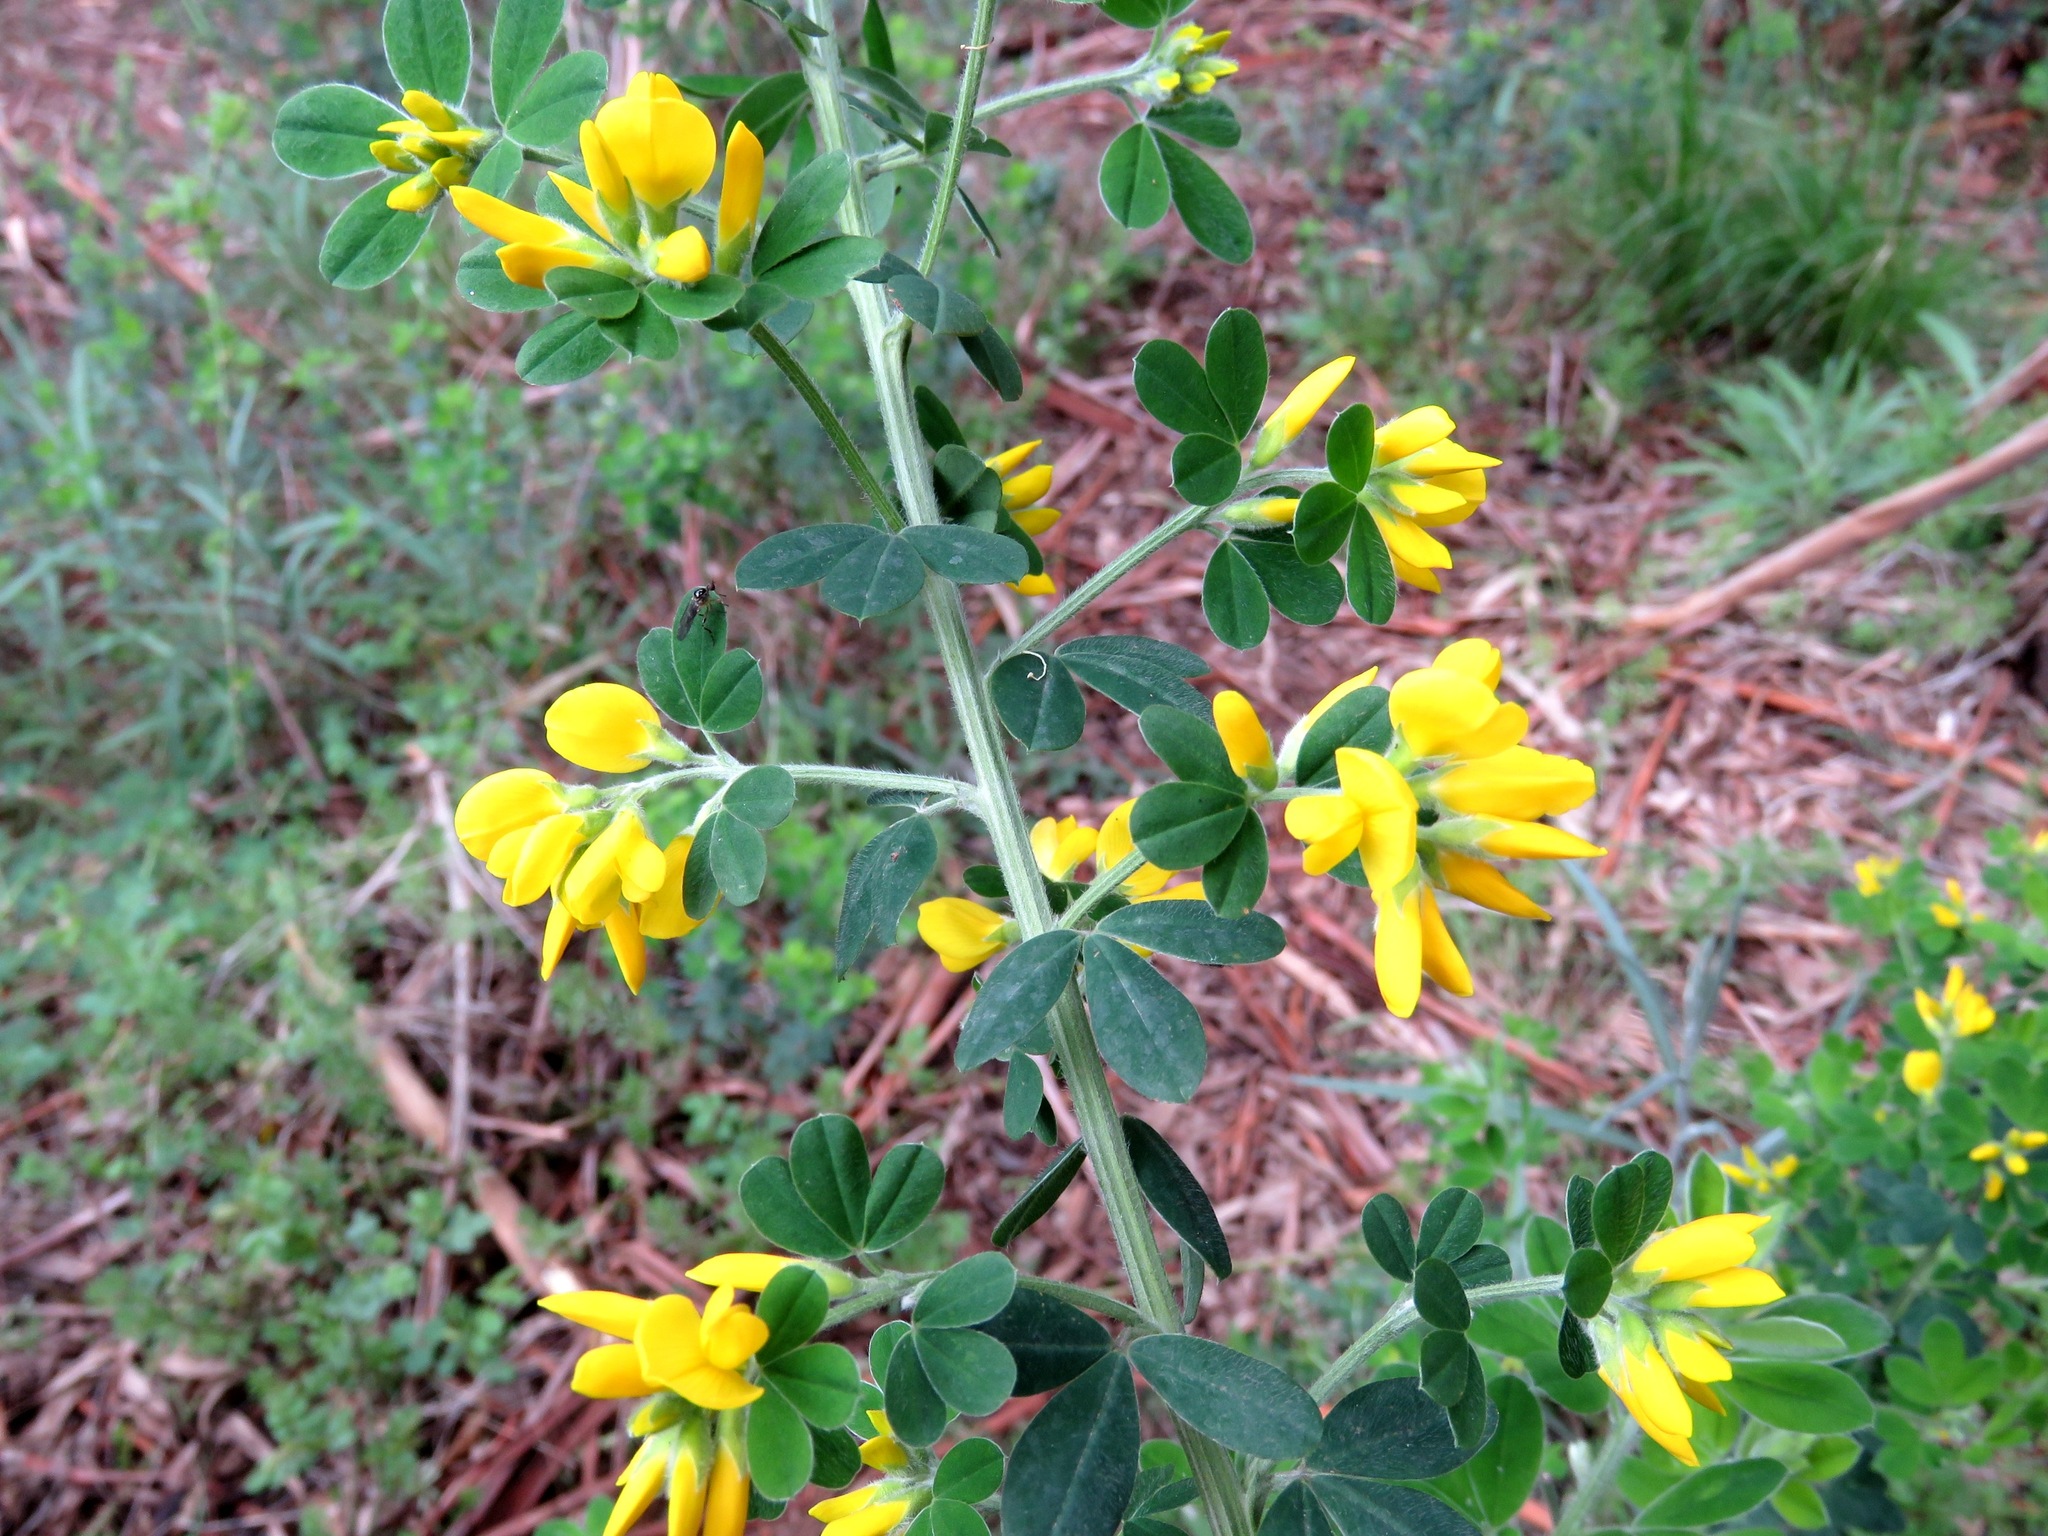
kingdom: Plantae
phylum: Tracheophyta
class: Magnoliopsida
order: Fabales
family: Fabaceae
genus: Genista
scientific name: Genista monspessulana
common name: Montpellier broom
